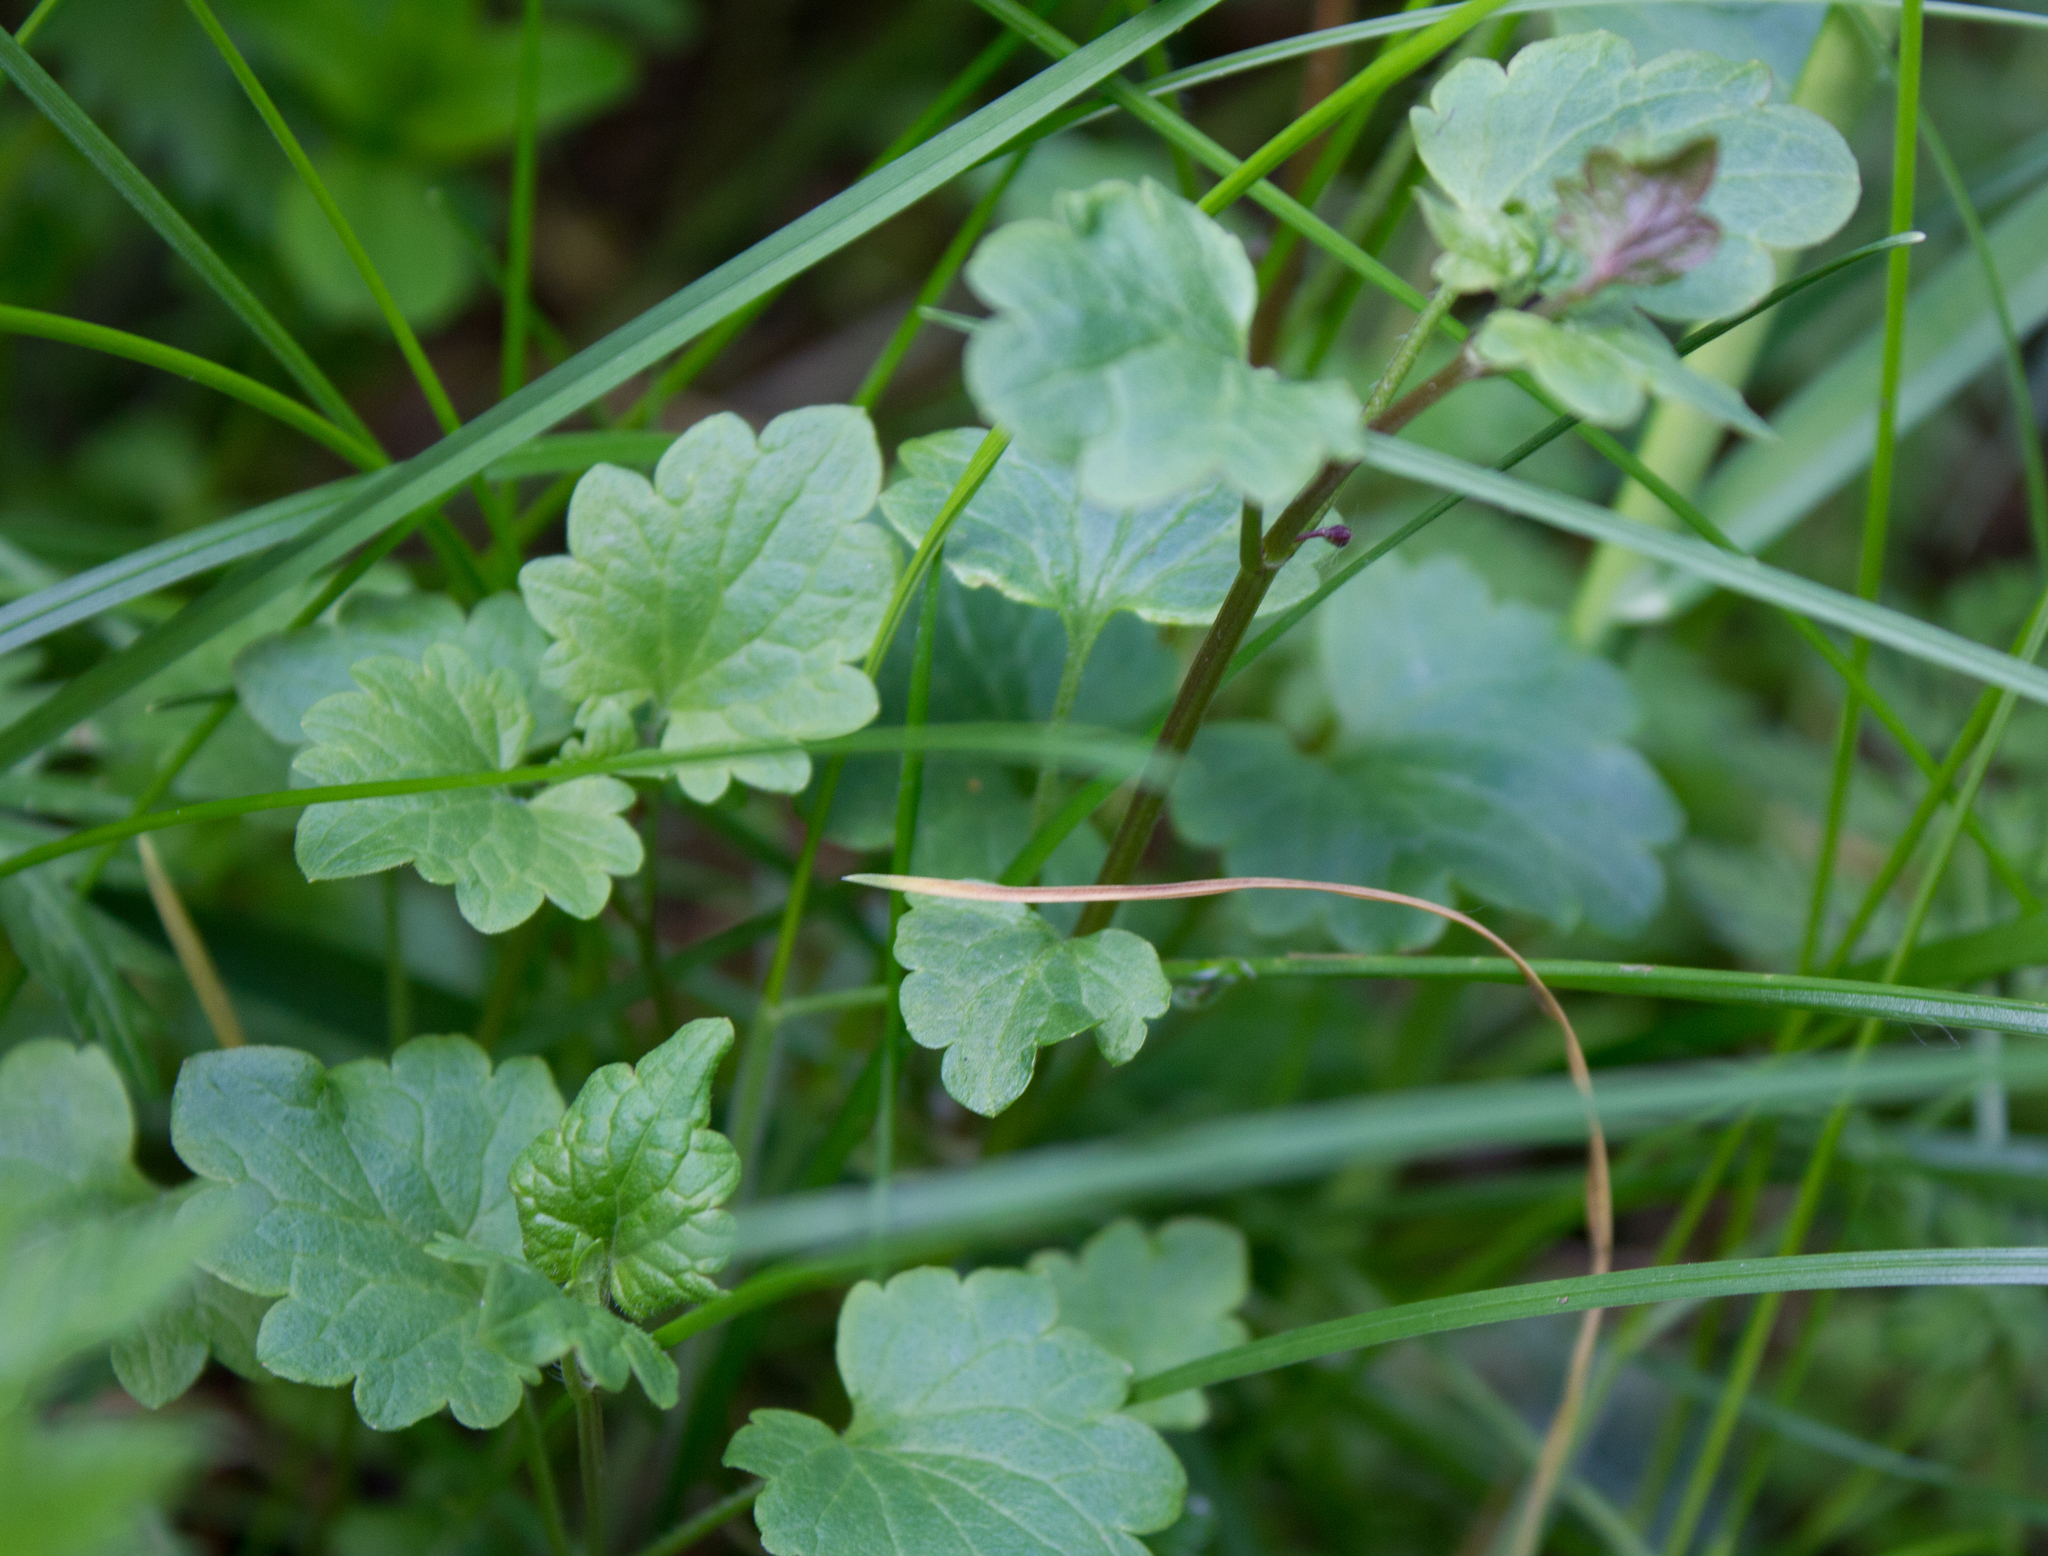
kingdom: Plantae
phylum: Tracheophyta
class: Magnoliopsida
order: Lamiales
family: Lamiaceae
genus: Glechoma
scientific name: Glechoma hederacea
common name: Ground ivy
